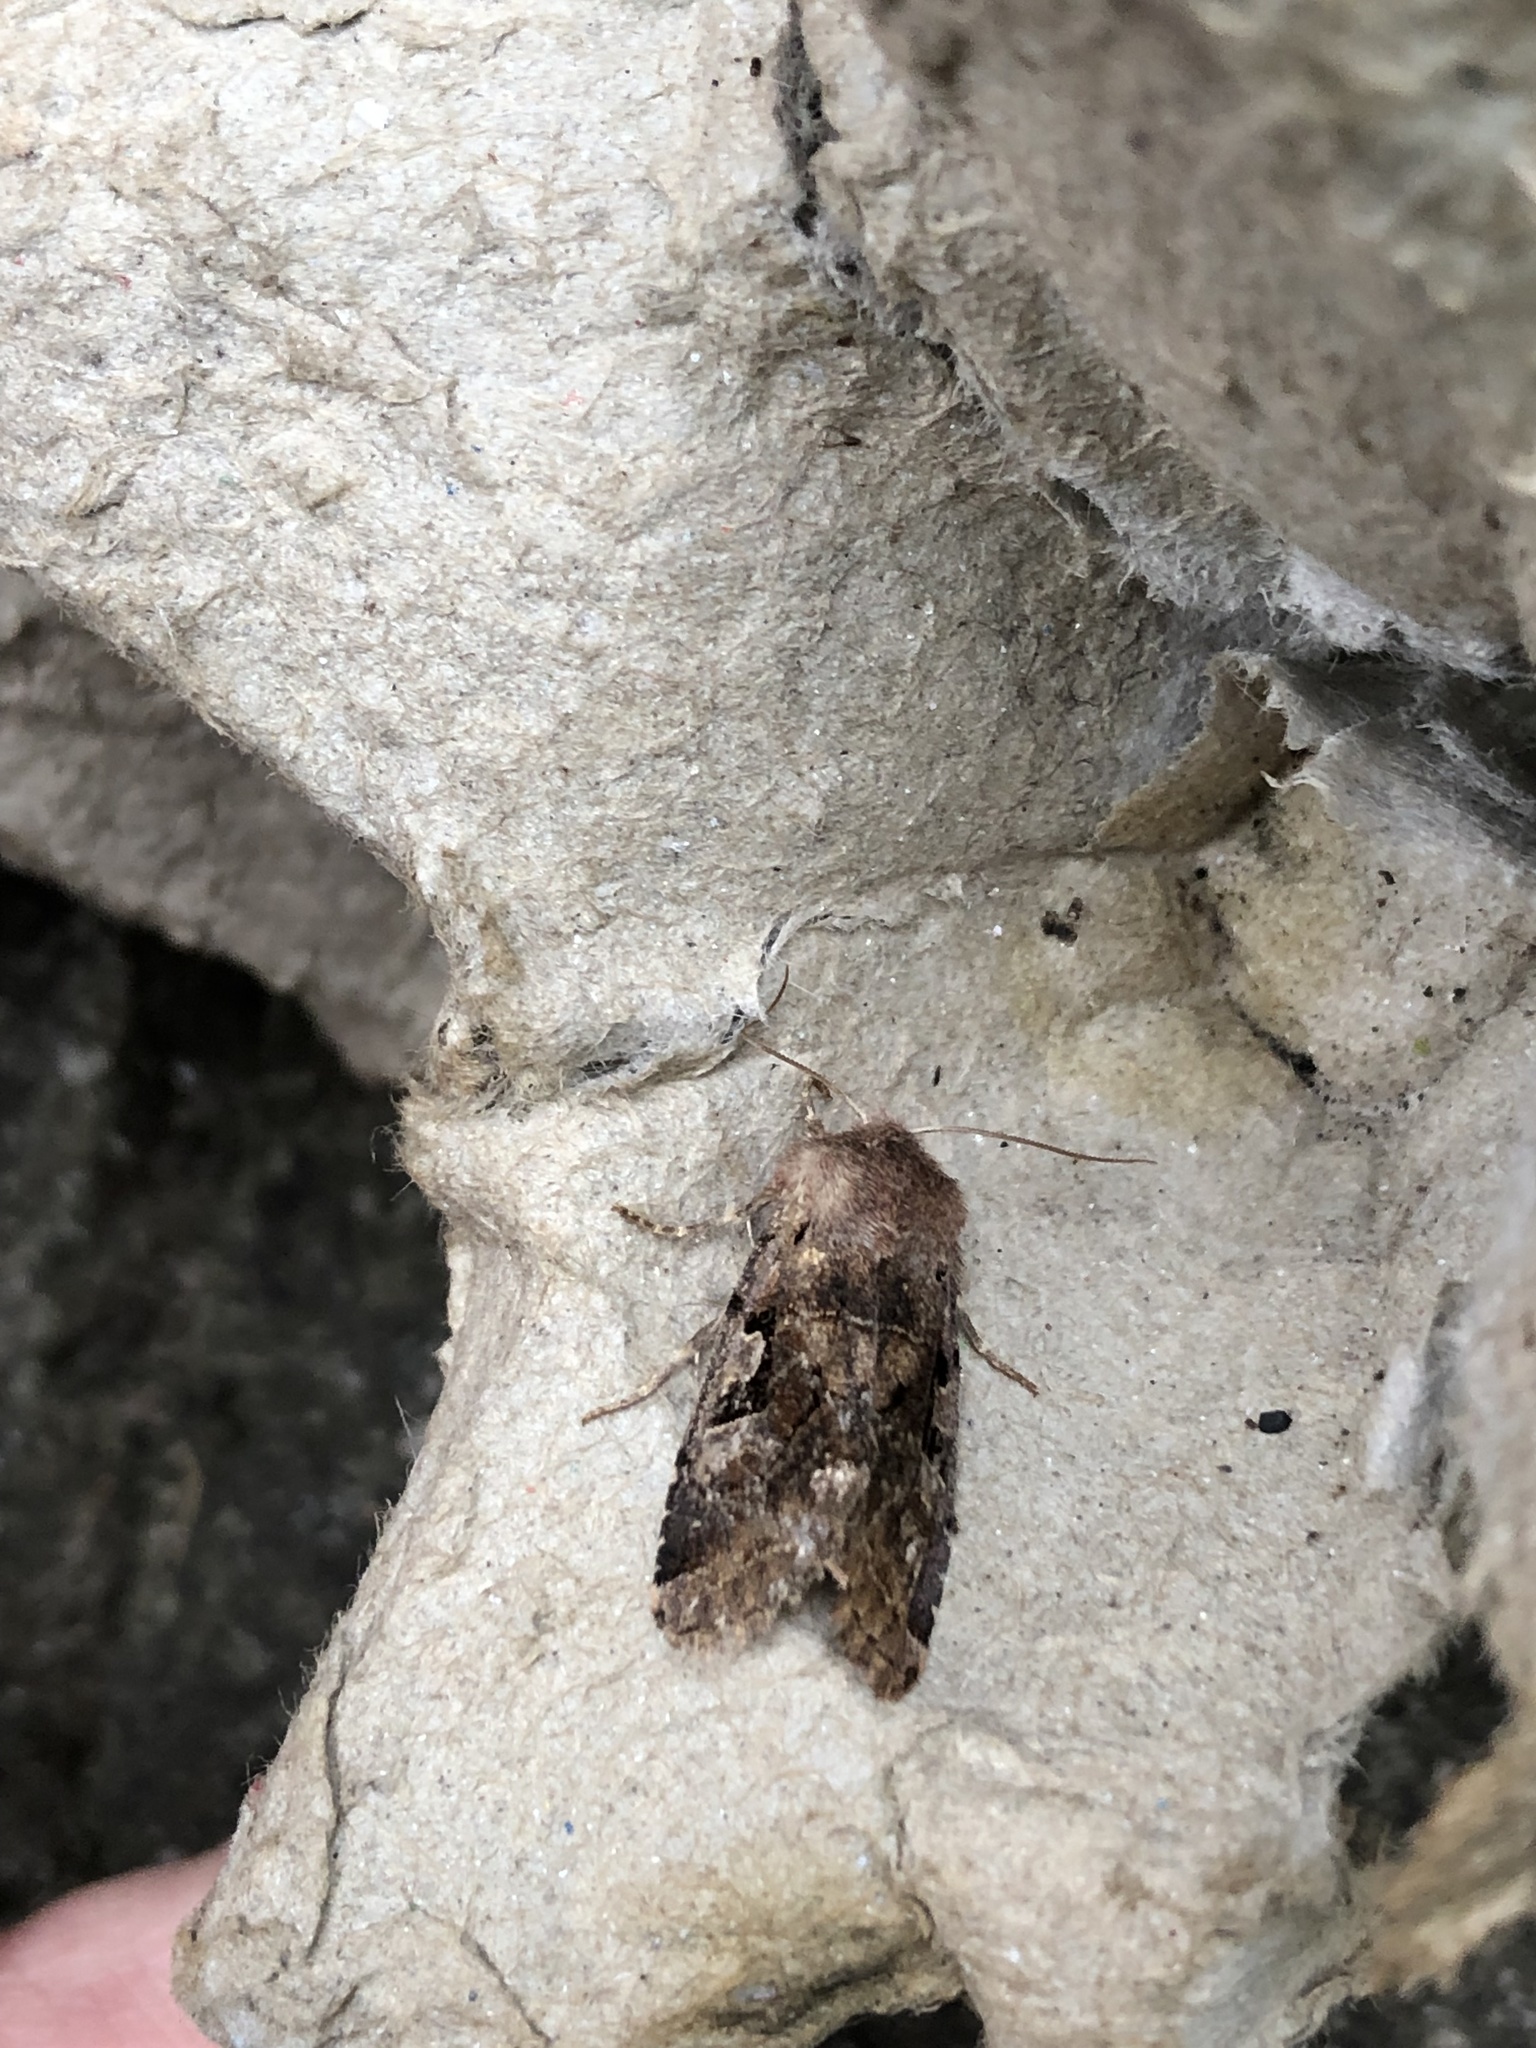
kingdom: Animalia
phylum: Arthropoda
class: Insecta
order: Lepidoptera
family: Noctuidae
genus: Orthosia
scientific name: Orthosia gothica
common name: Hebrew character
